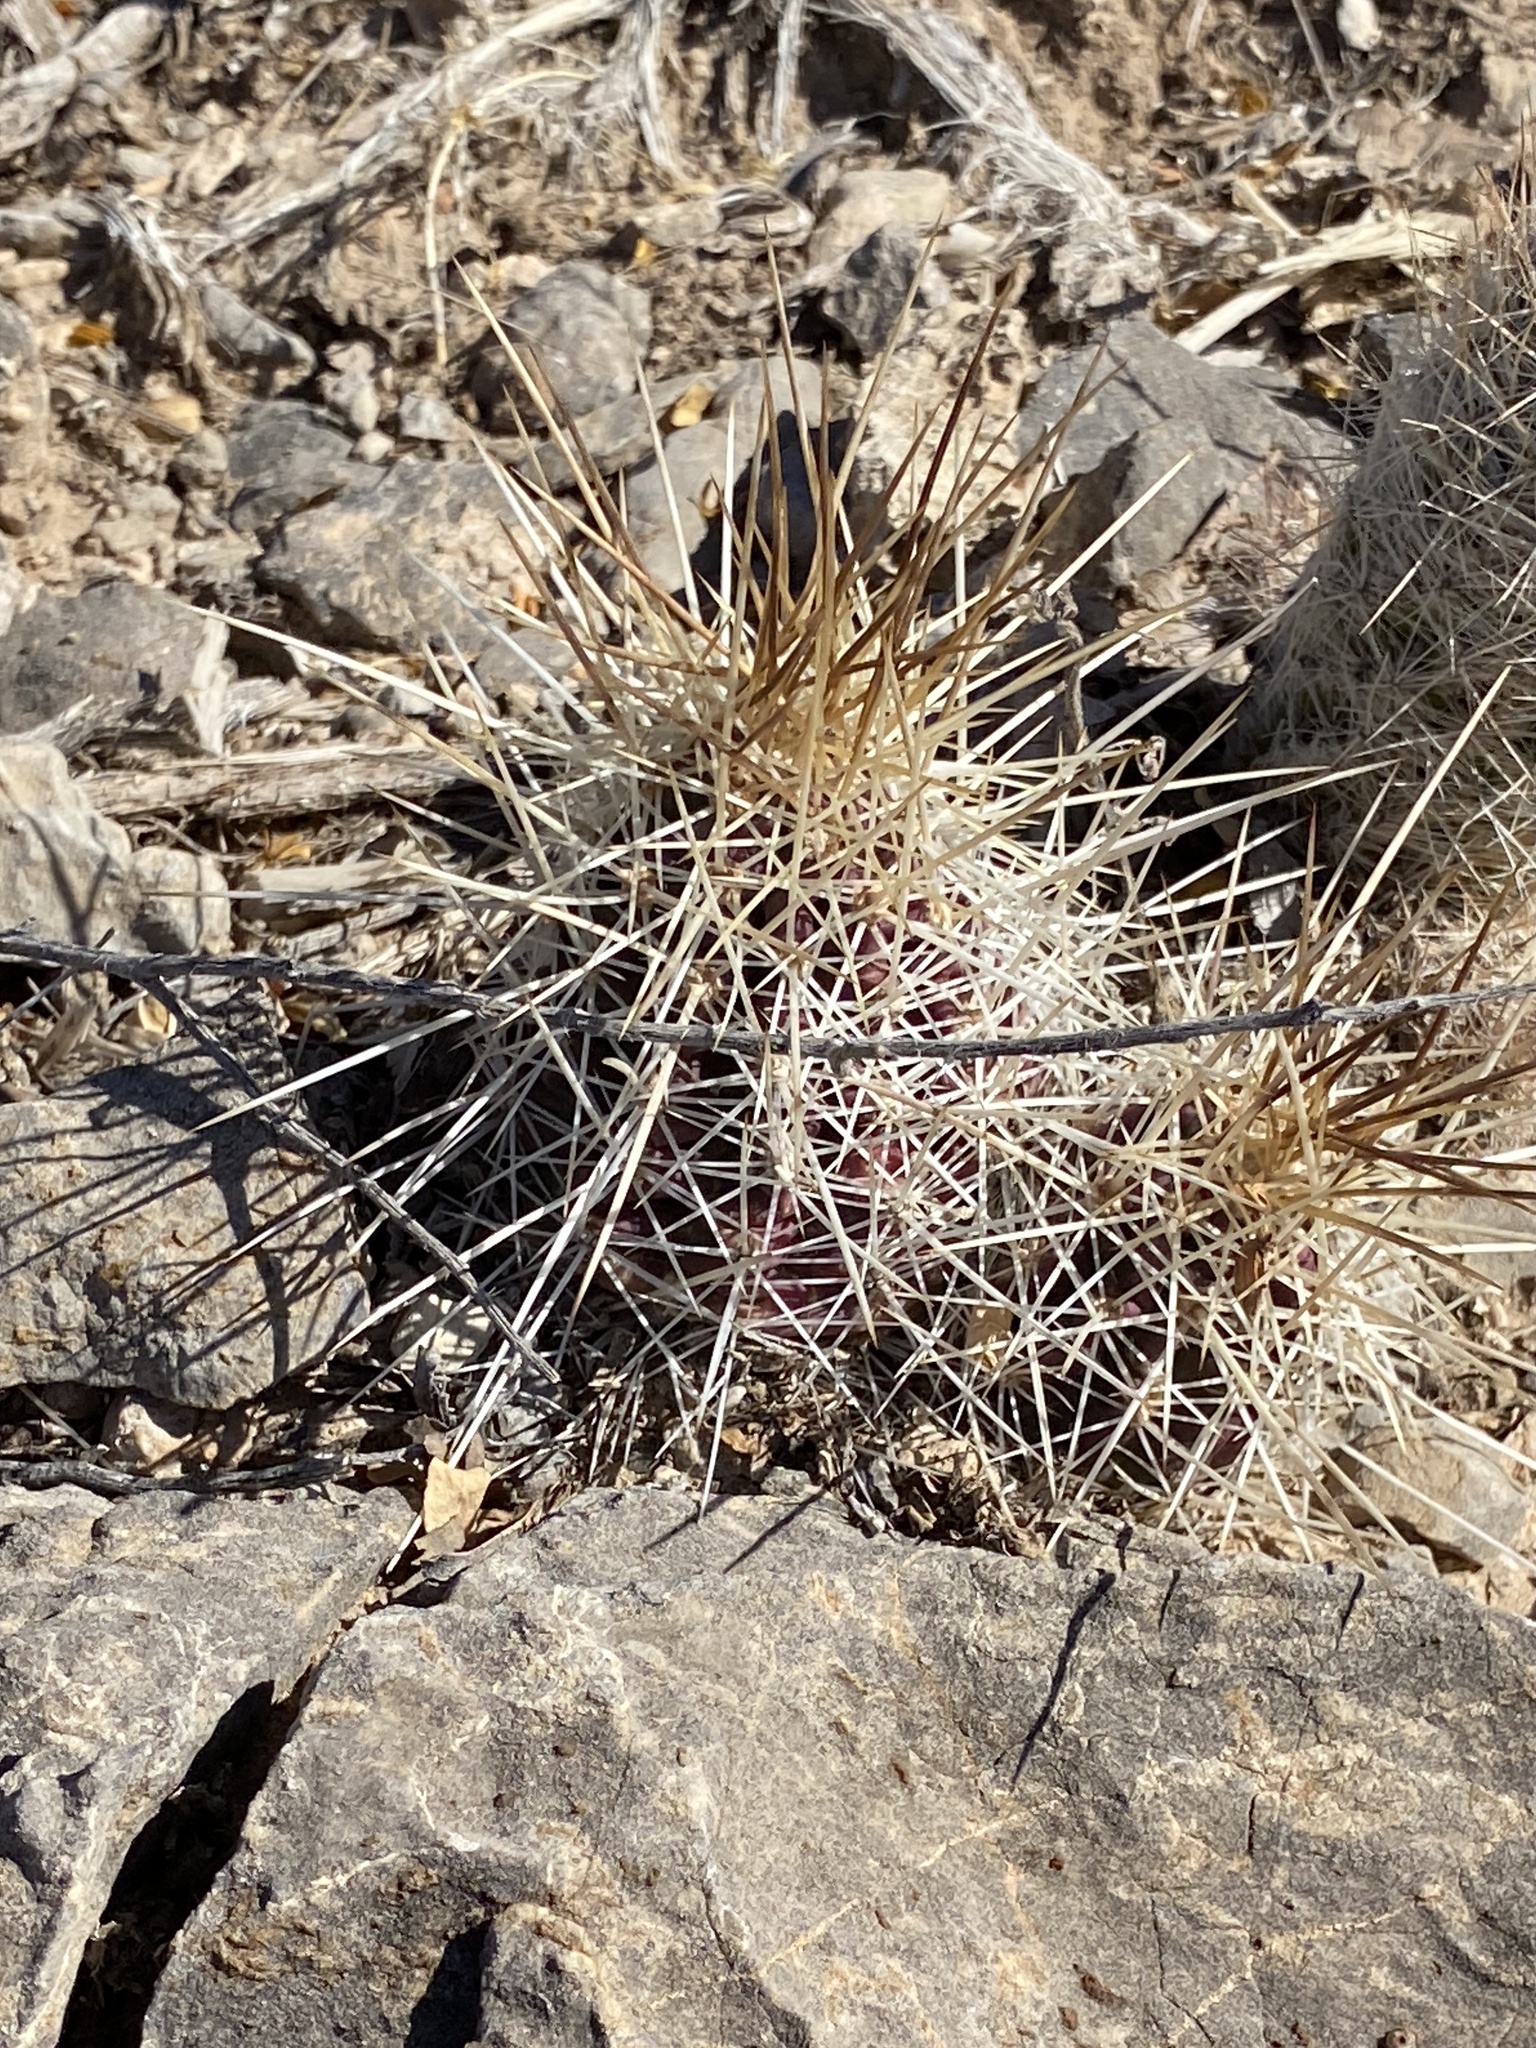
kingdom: Plantae
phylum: Tracheophyta
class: Magnoliopsida
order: Caryophyllales
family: Cactaceae
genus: Echinocereus
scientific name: Echinocereus stramineus
